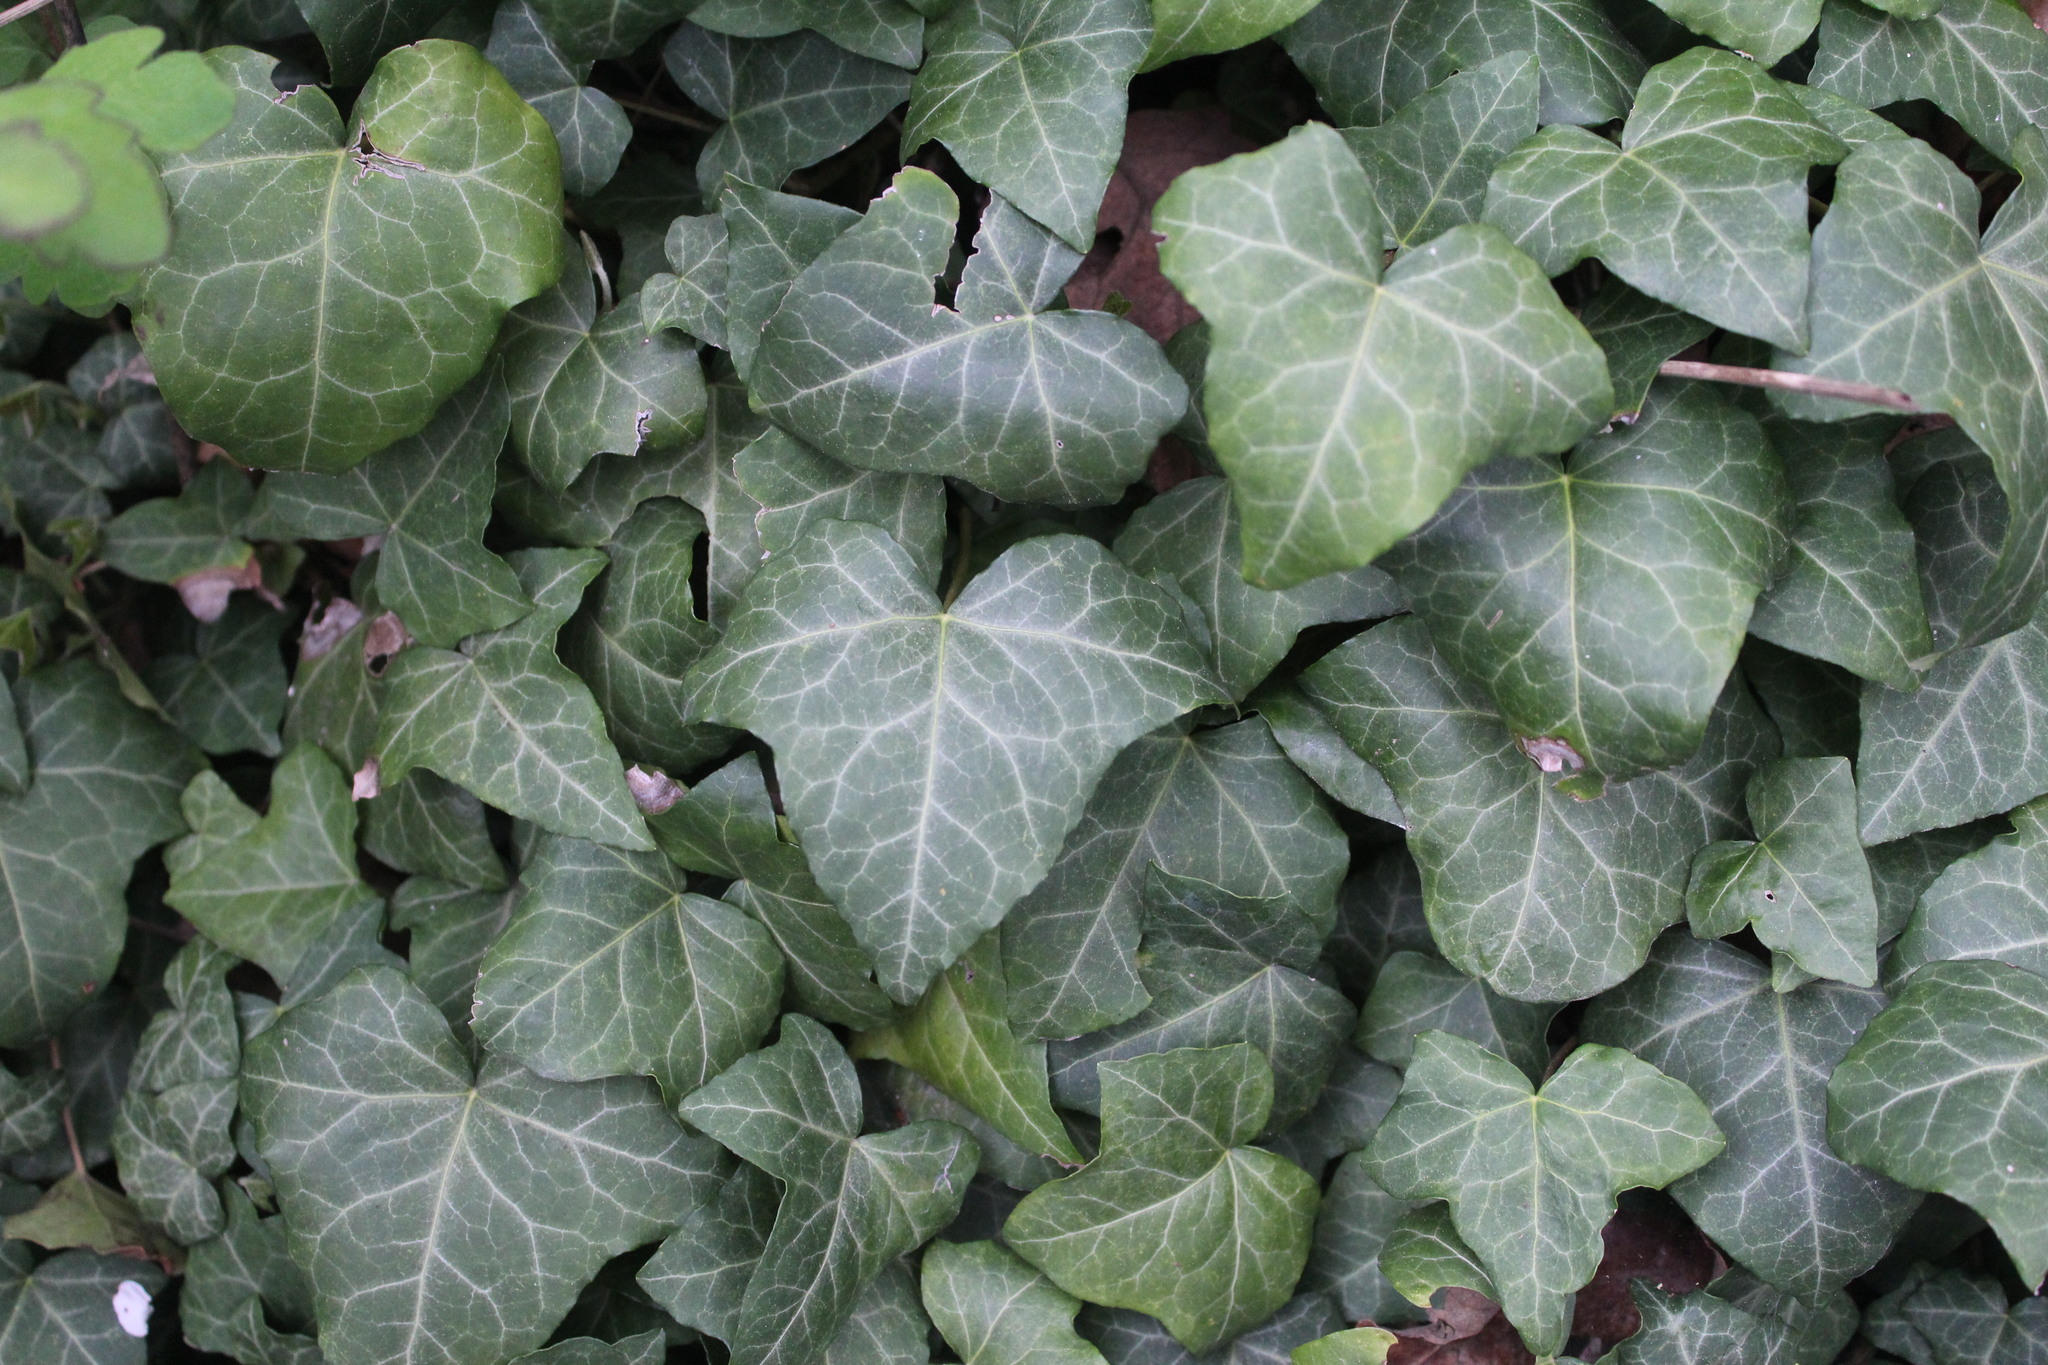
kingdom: Plantae
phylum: Tracheophyta
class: Magnoliopsida
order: Apiales
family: Araliaceae
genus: Hedera
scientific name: Hedera helix
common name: Ivy
